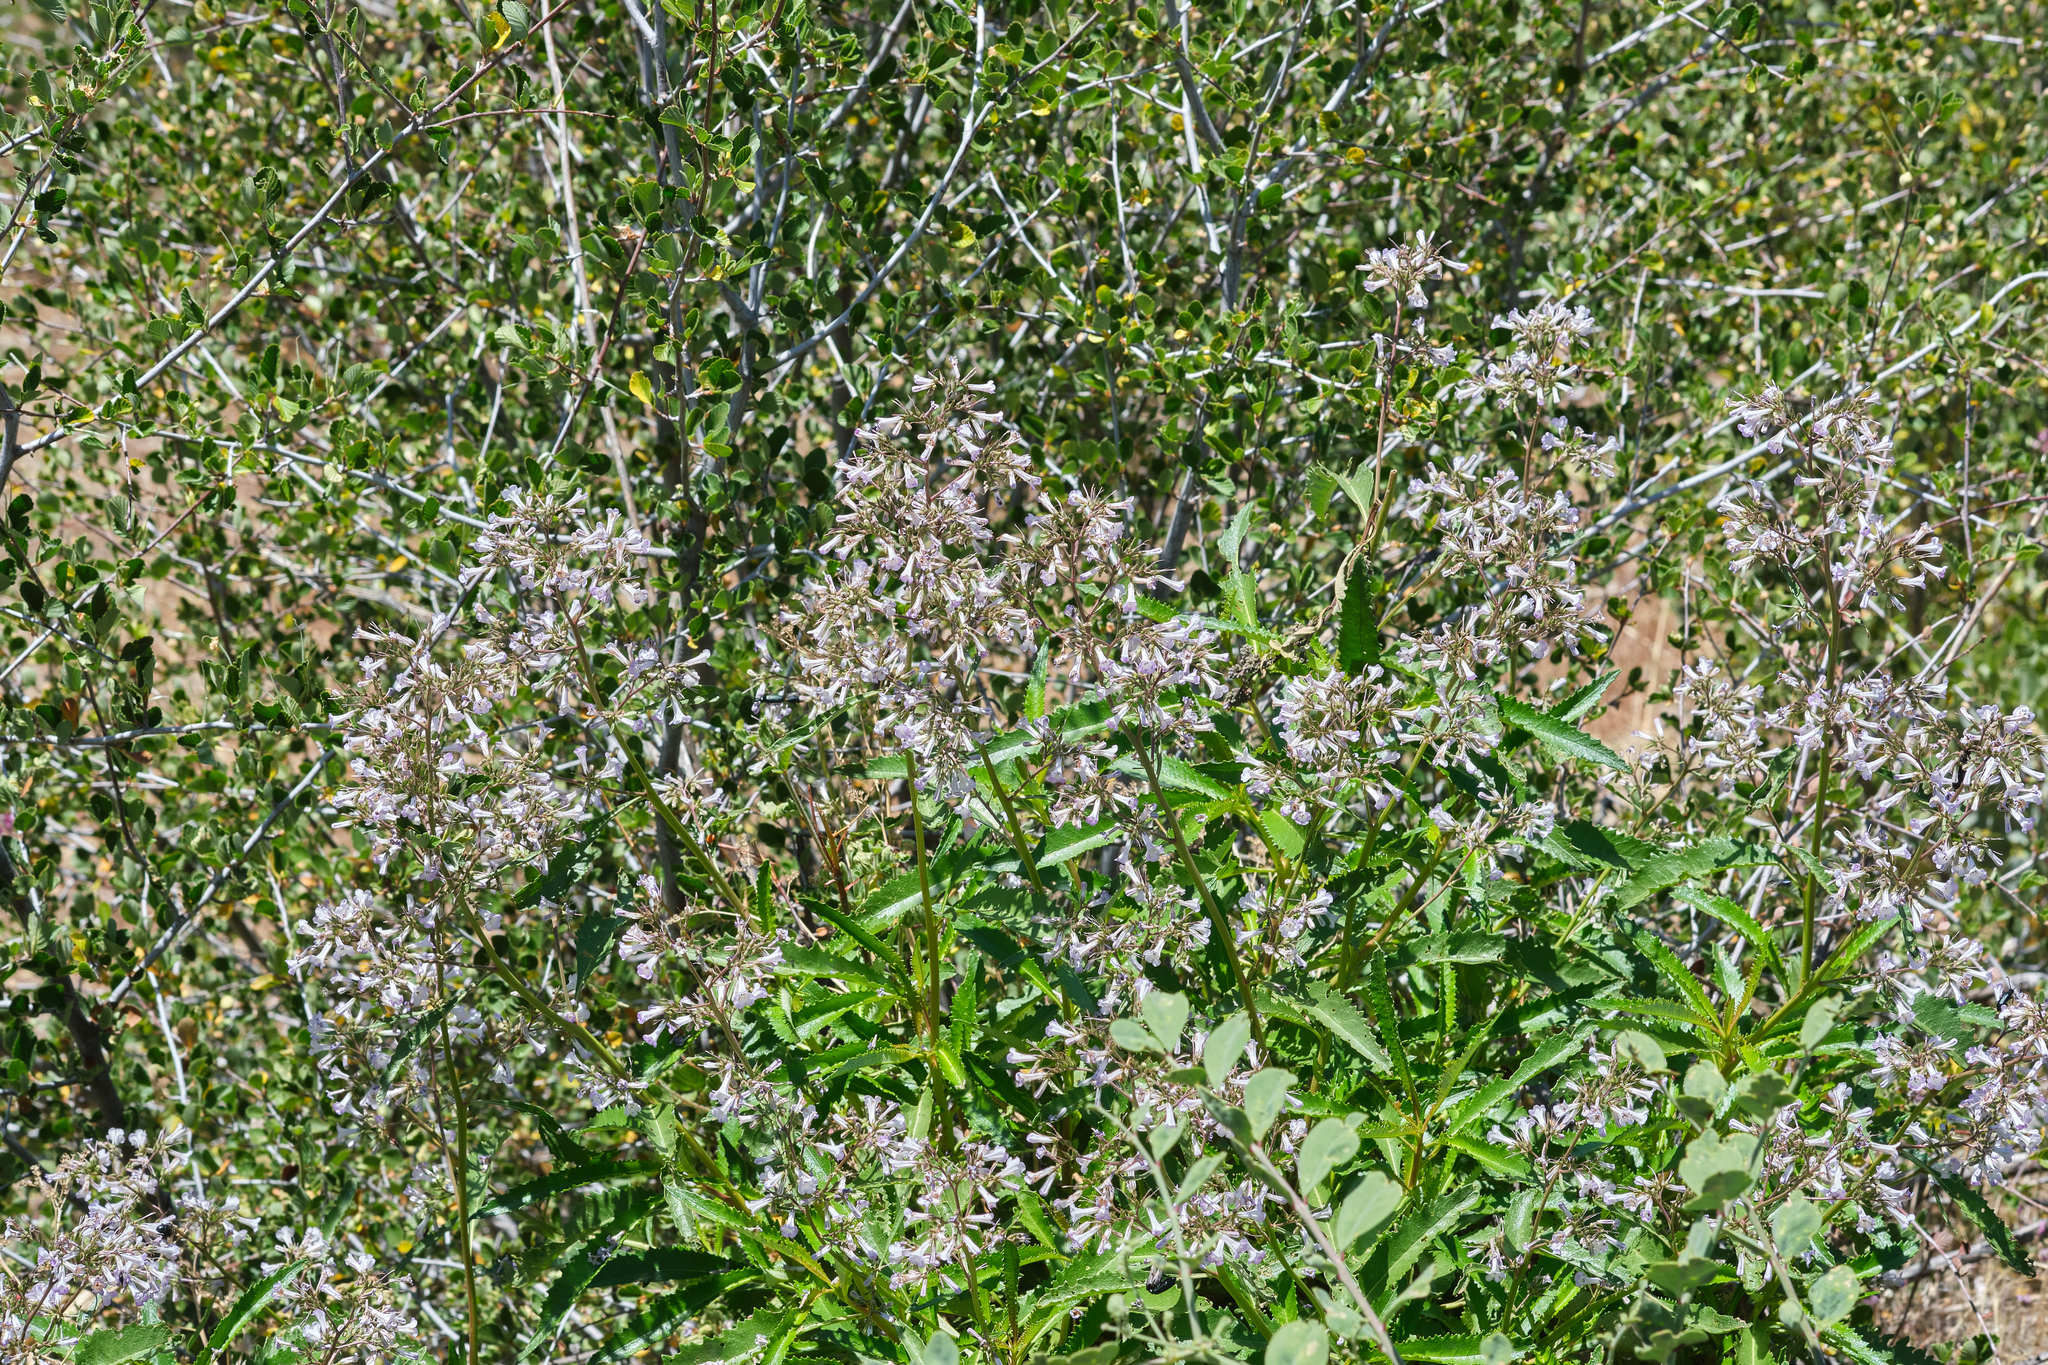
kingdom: Plantae
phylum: Tracheophyta
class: Magnoliopsida
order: Boraginales
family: Namaceae
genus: Eriodictyon
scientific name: Eriodictyon californicum
